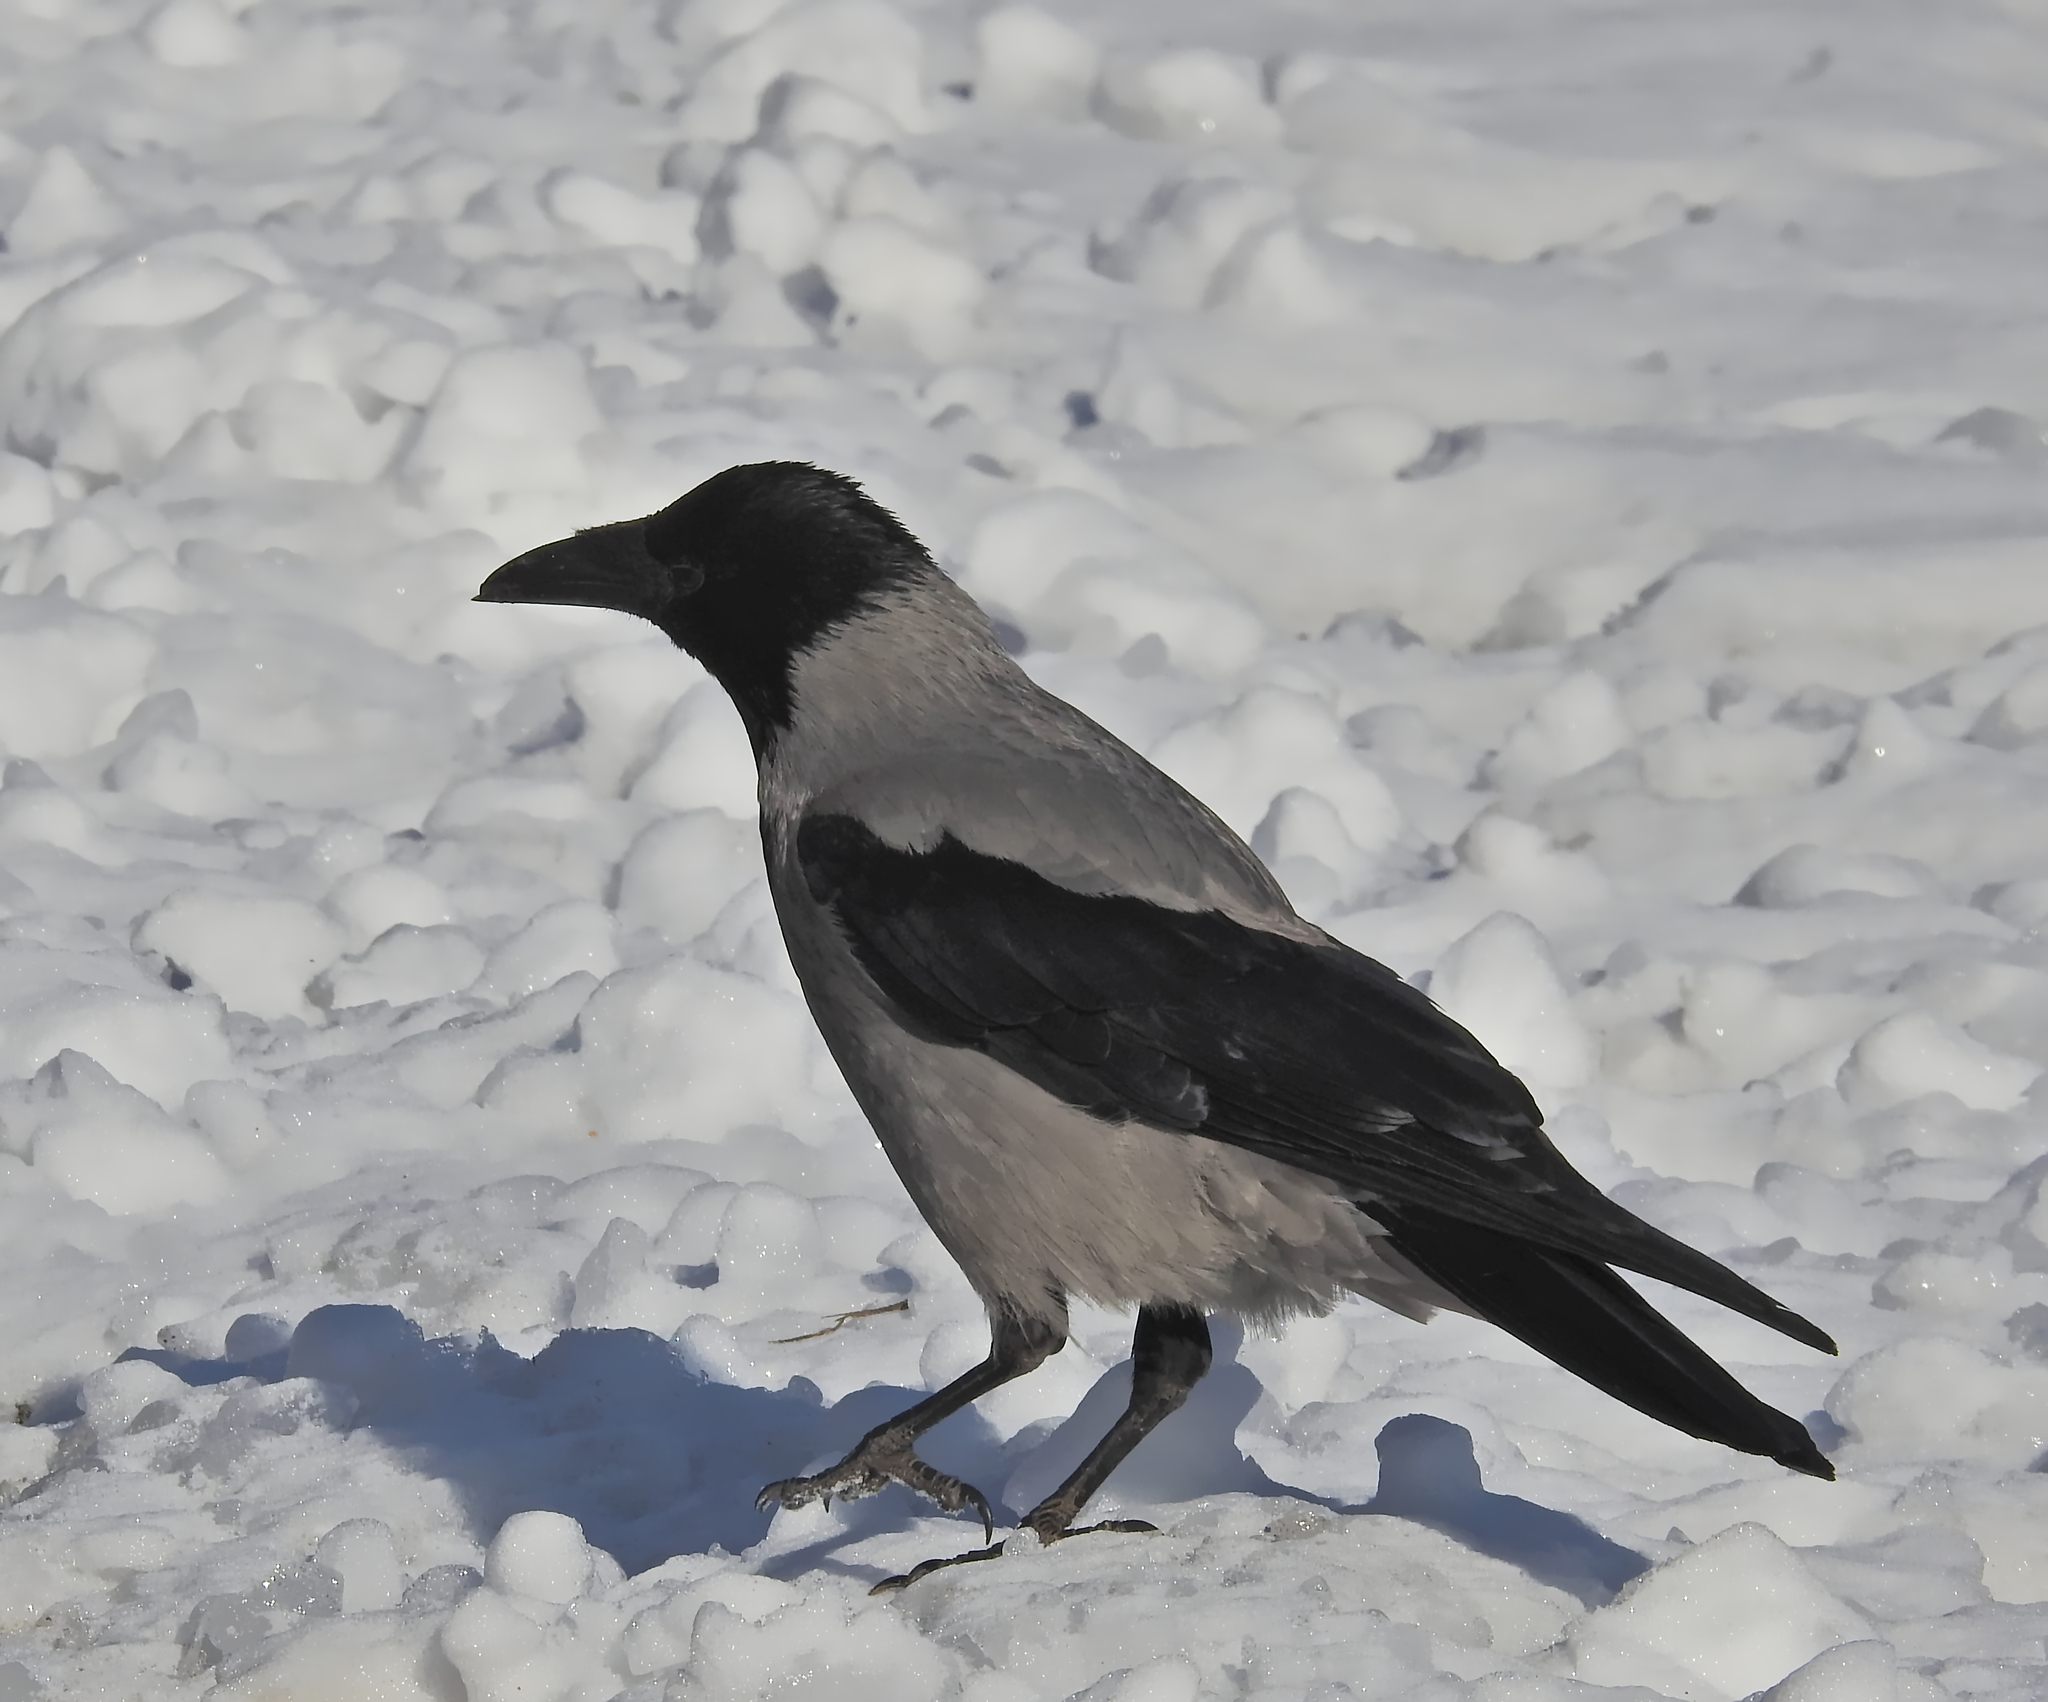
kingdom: Animalia
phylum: Chordata
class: Aves
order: Passeriformes
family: Corvidae
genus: Corvus
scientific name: Corvus cornix
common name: Hooded crow
